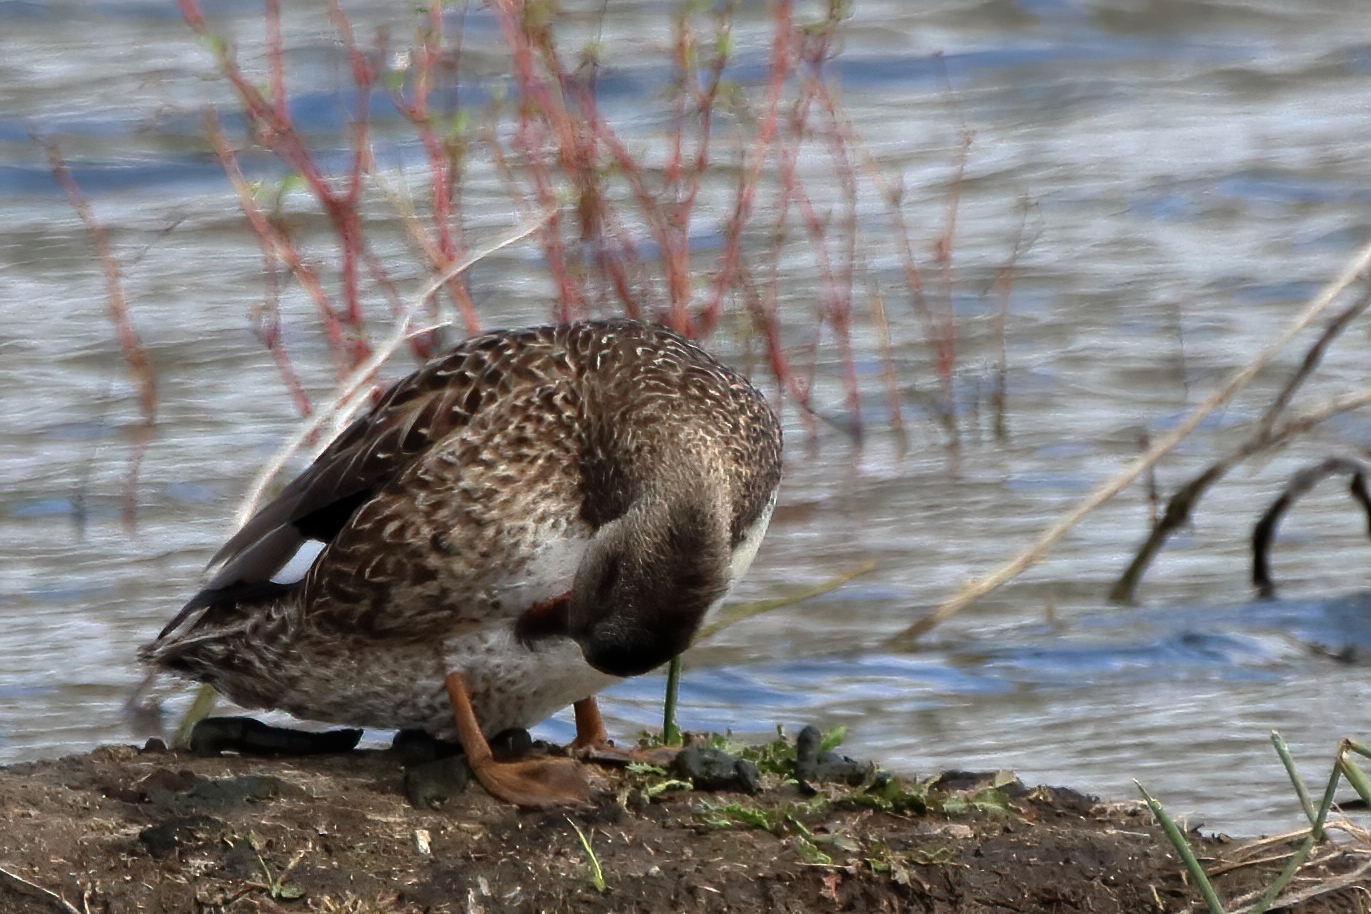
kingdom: Animalia
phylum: Chordata
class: Aves
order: Anseriformes
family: Anatidae
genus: Mareca
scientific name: Mareca strepera
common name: Gadwall
